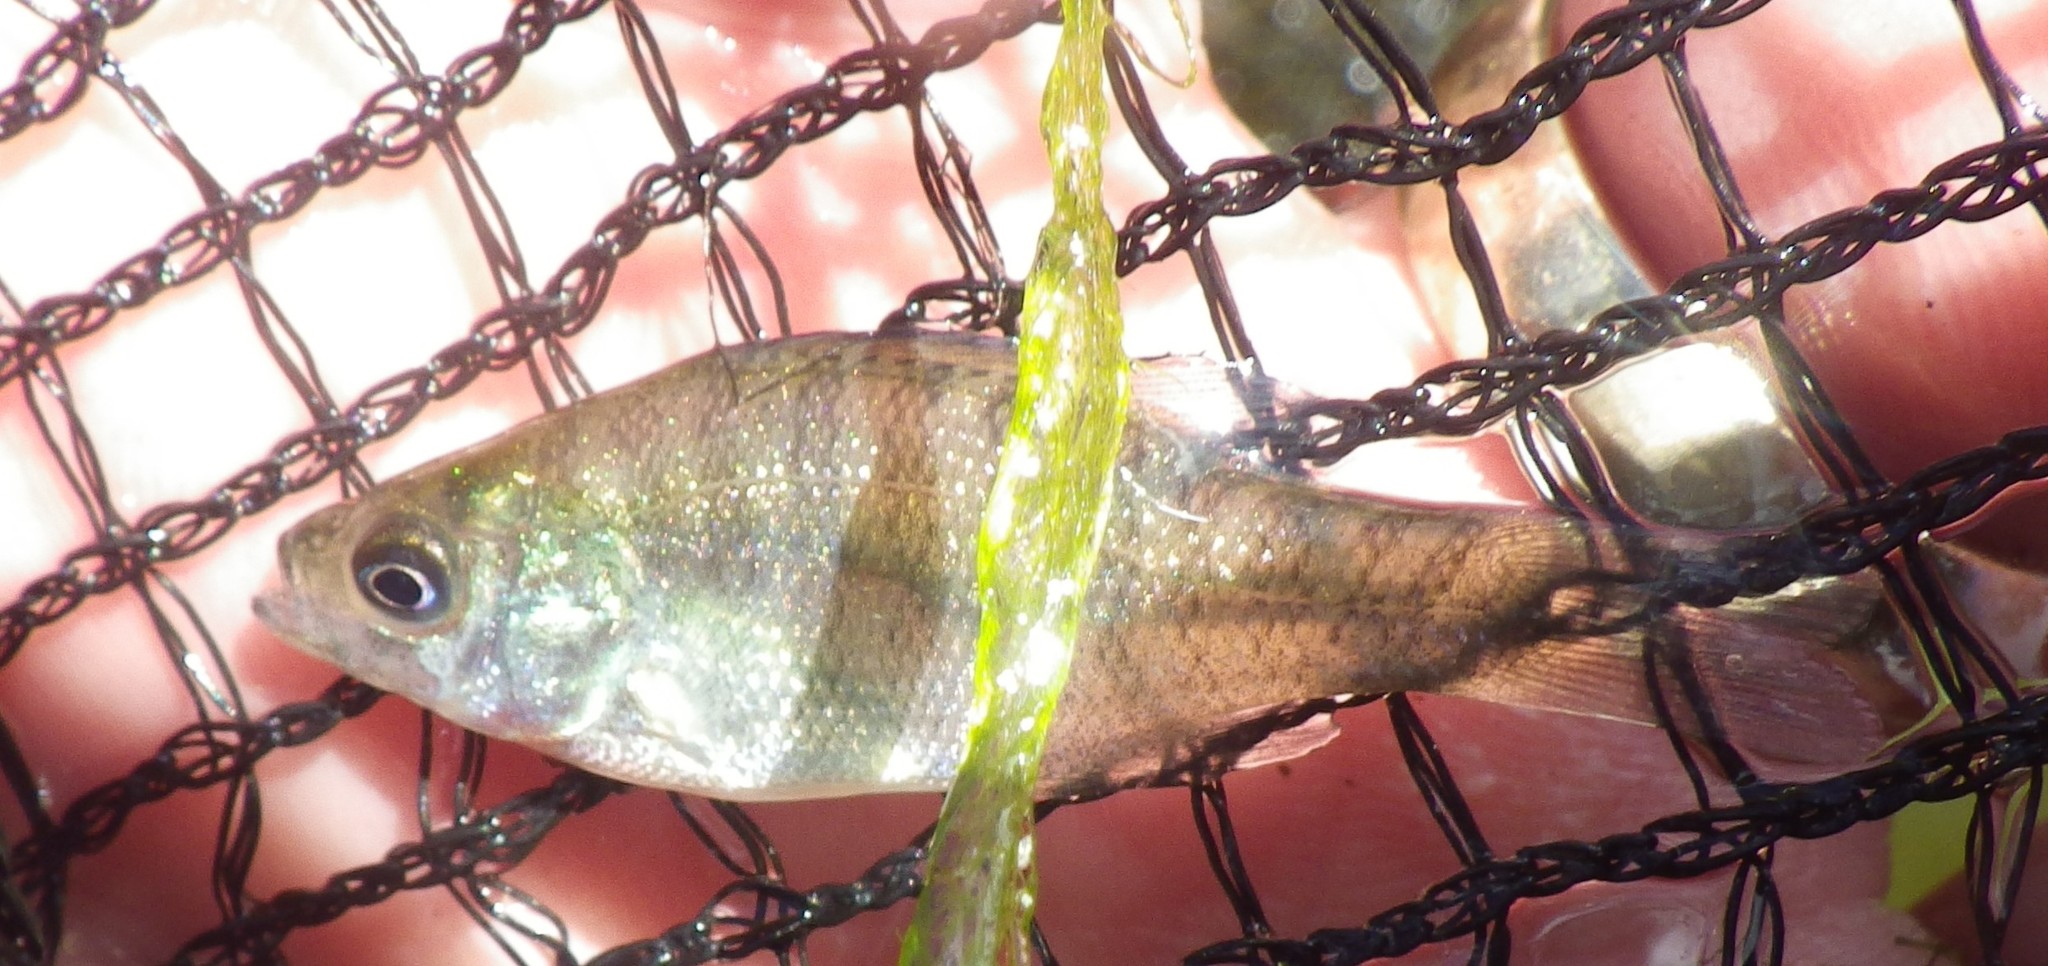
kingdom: Animalia
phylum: Chordata
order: Perciformes
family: Centrarchidae
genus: Lepomis
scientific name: Lepomis macrochirus
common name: Bluegill
